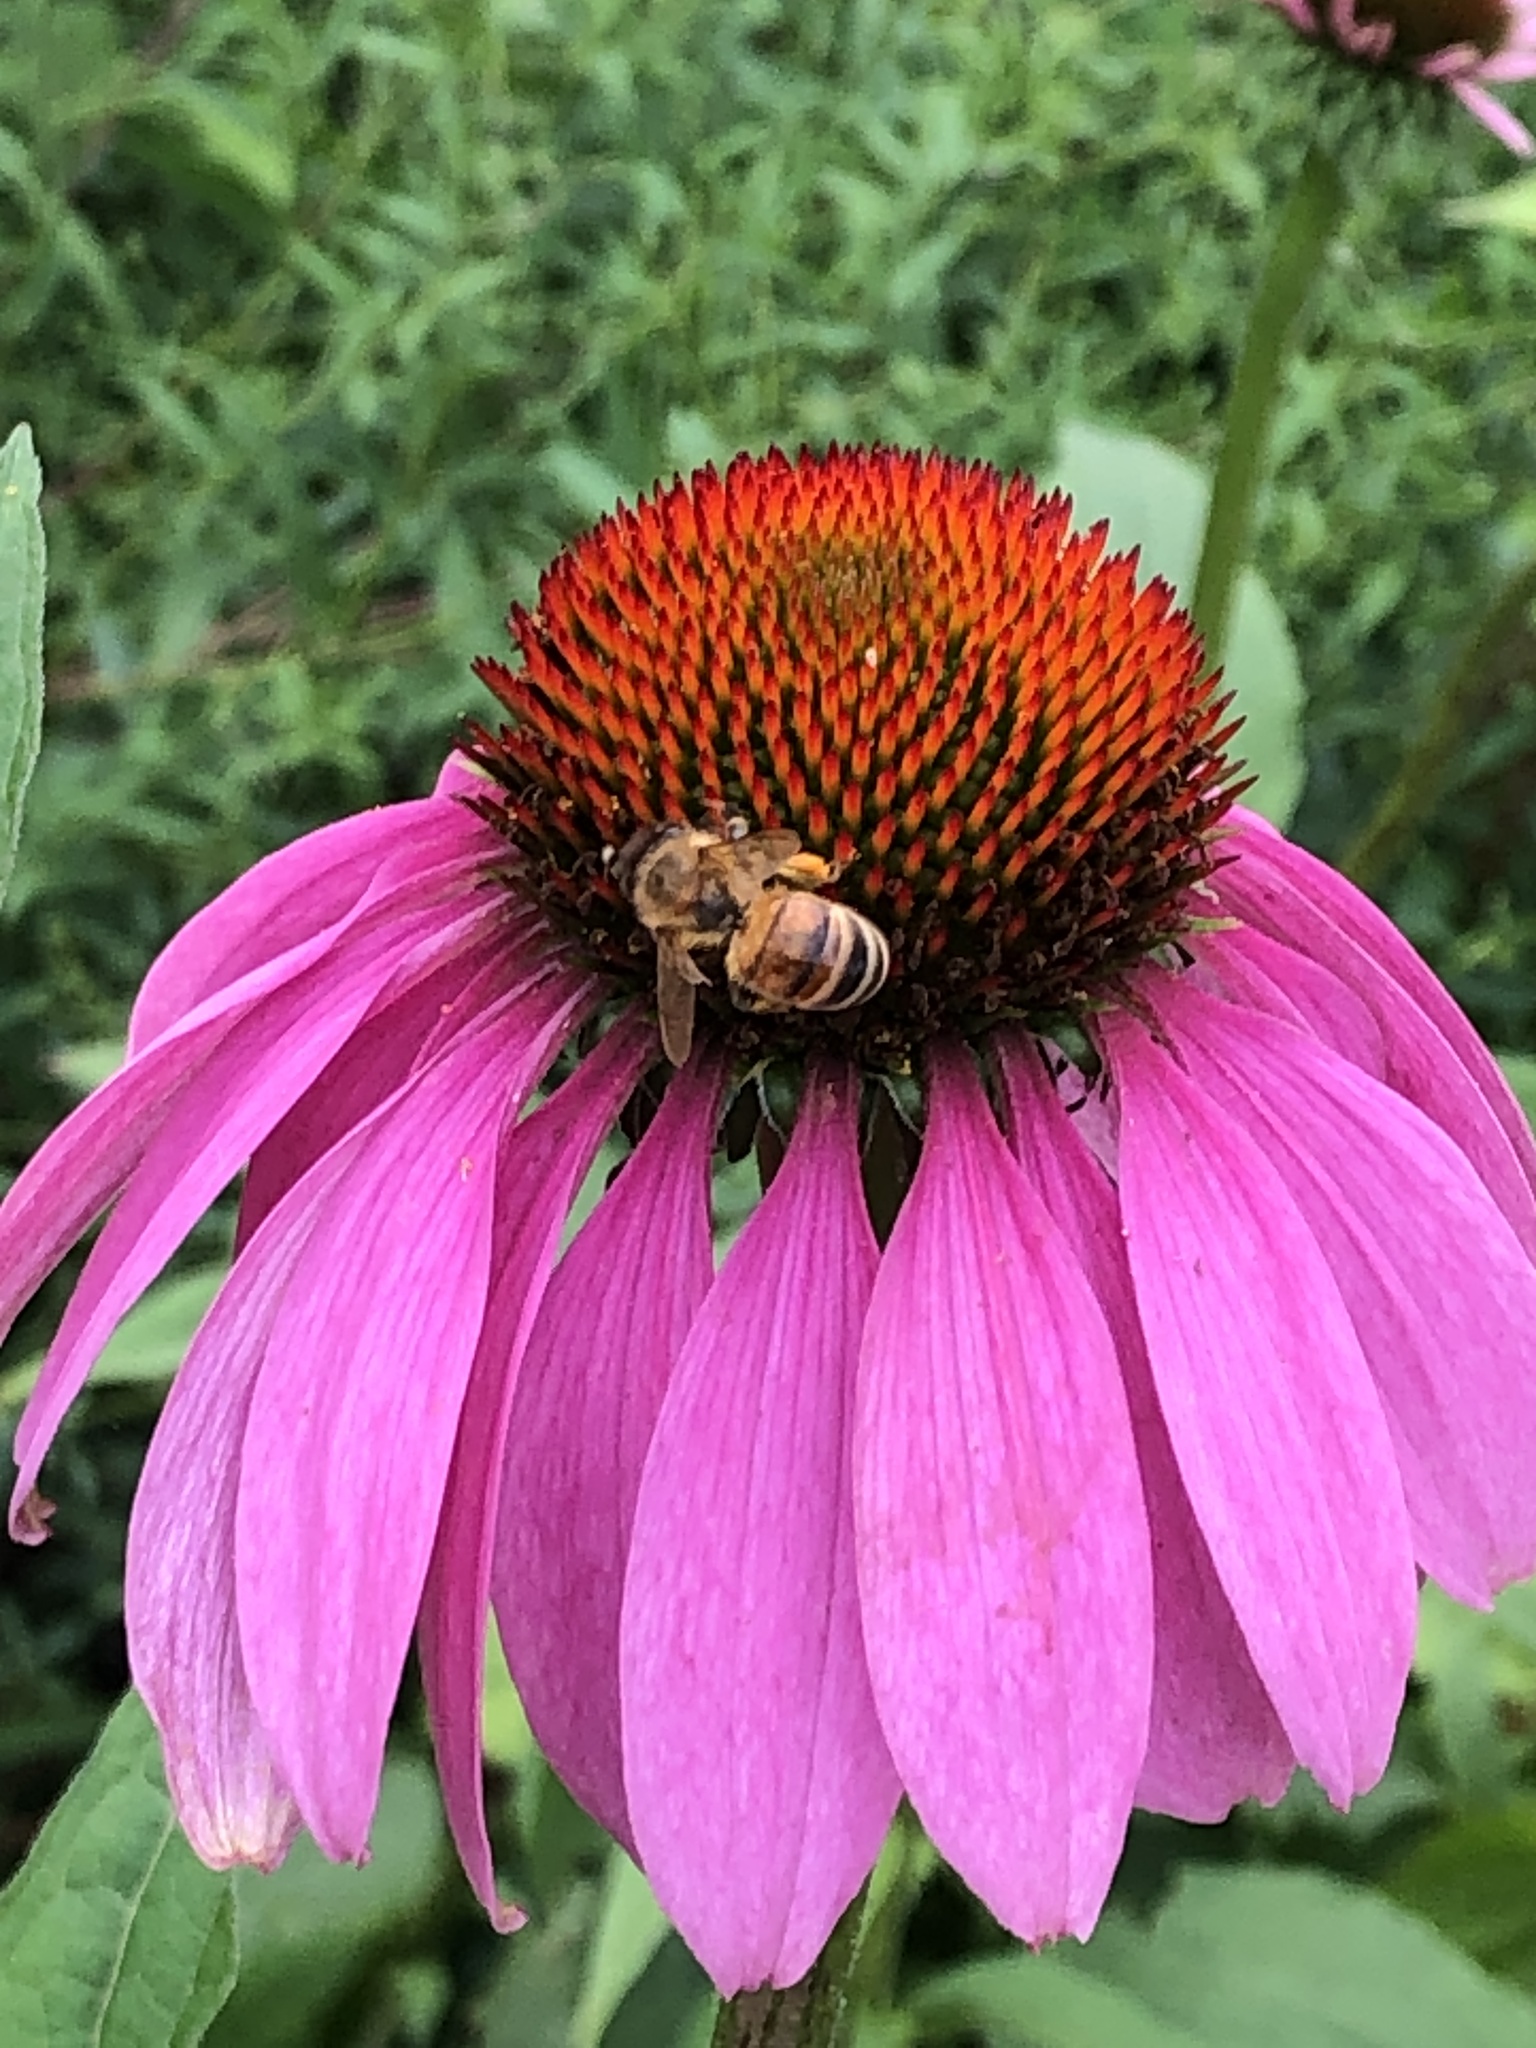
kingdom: Animalia
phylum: Arthropoda
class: Insecta
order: Hymenoptera
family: Apidae
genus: Apis
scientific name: Apis mellifera
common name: Honey bee
